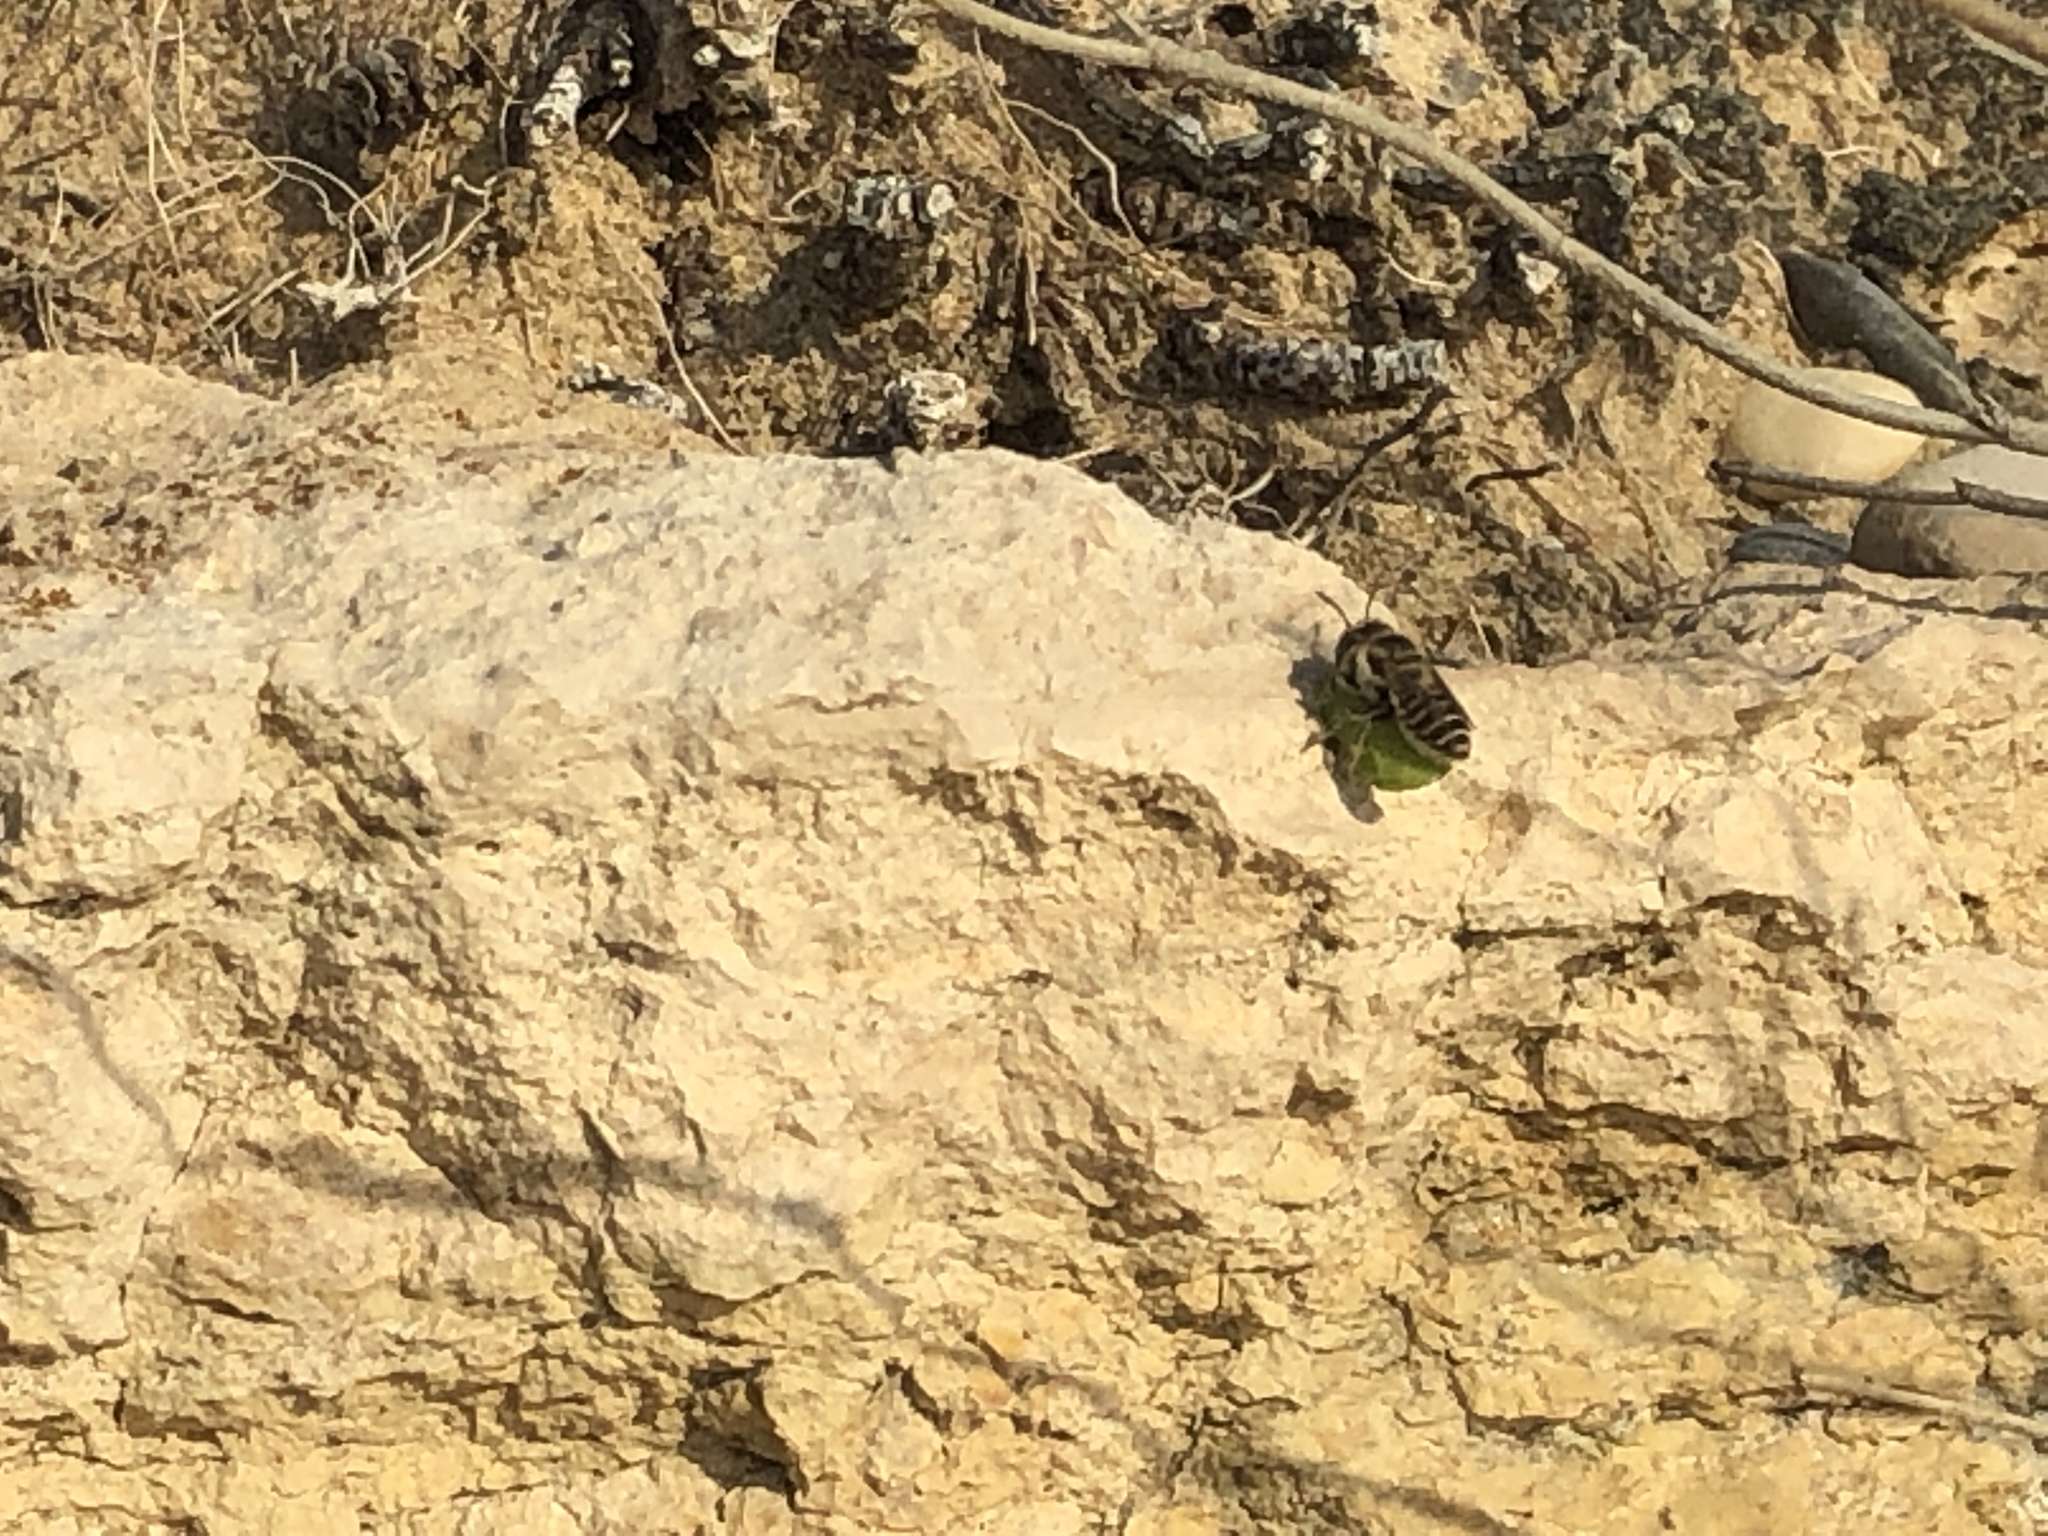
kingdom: Animalia
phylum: Arthropoda
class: Insecta
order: Hymenoptera
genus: Eutricharaea
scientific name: Eutricharaea
